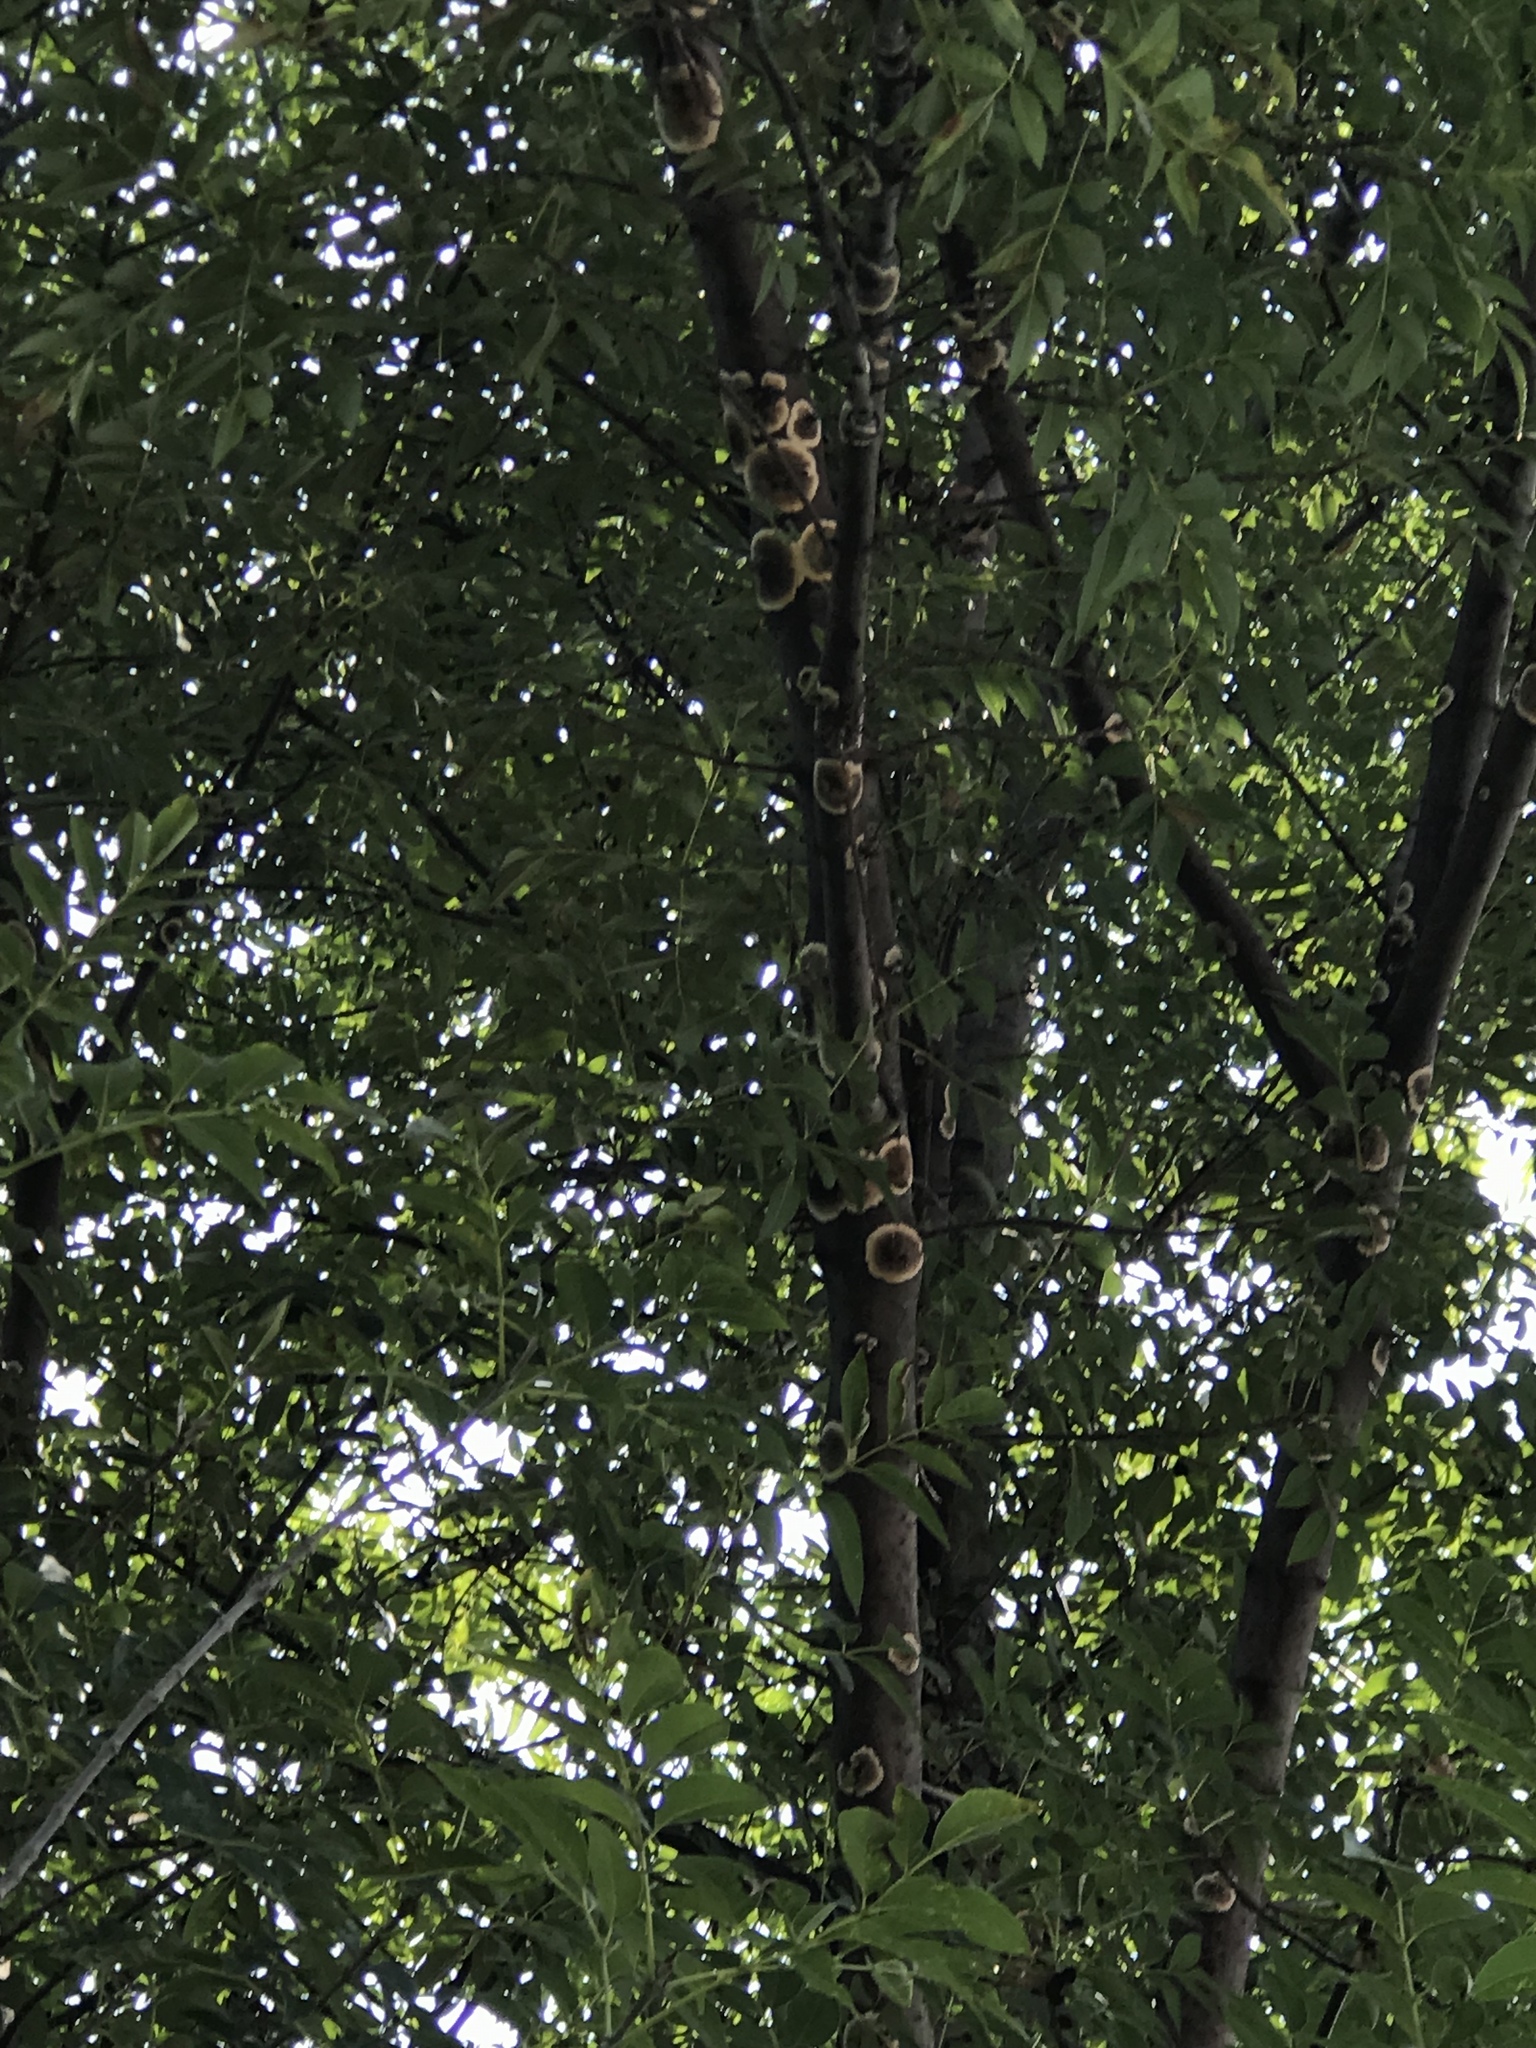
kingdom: Plantae
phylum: Tracheophyta
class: Magnoliopsida
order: Lamiales
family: Oleaceae
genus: Fraxinus
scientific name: Fraxinus uhdei
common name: Shamel ash
